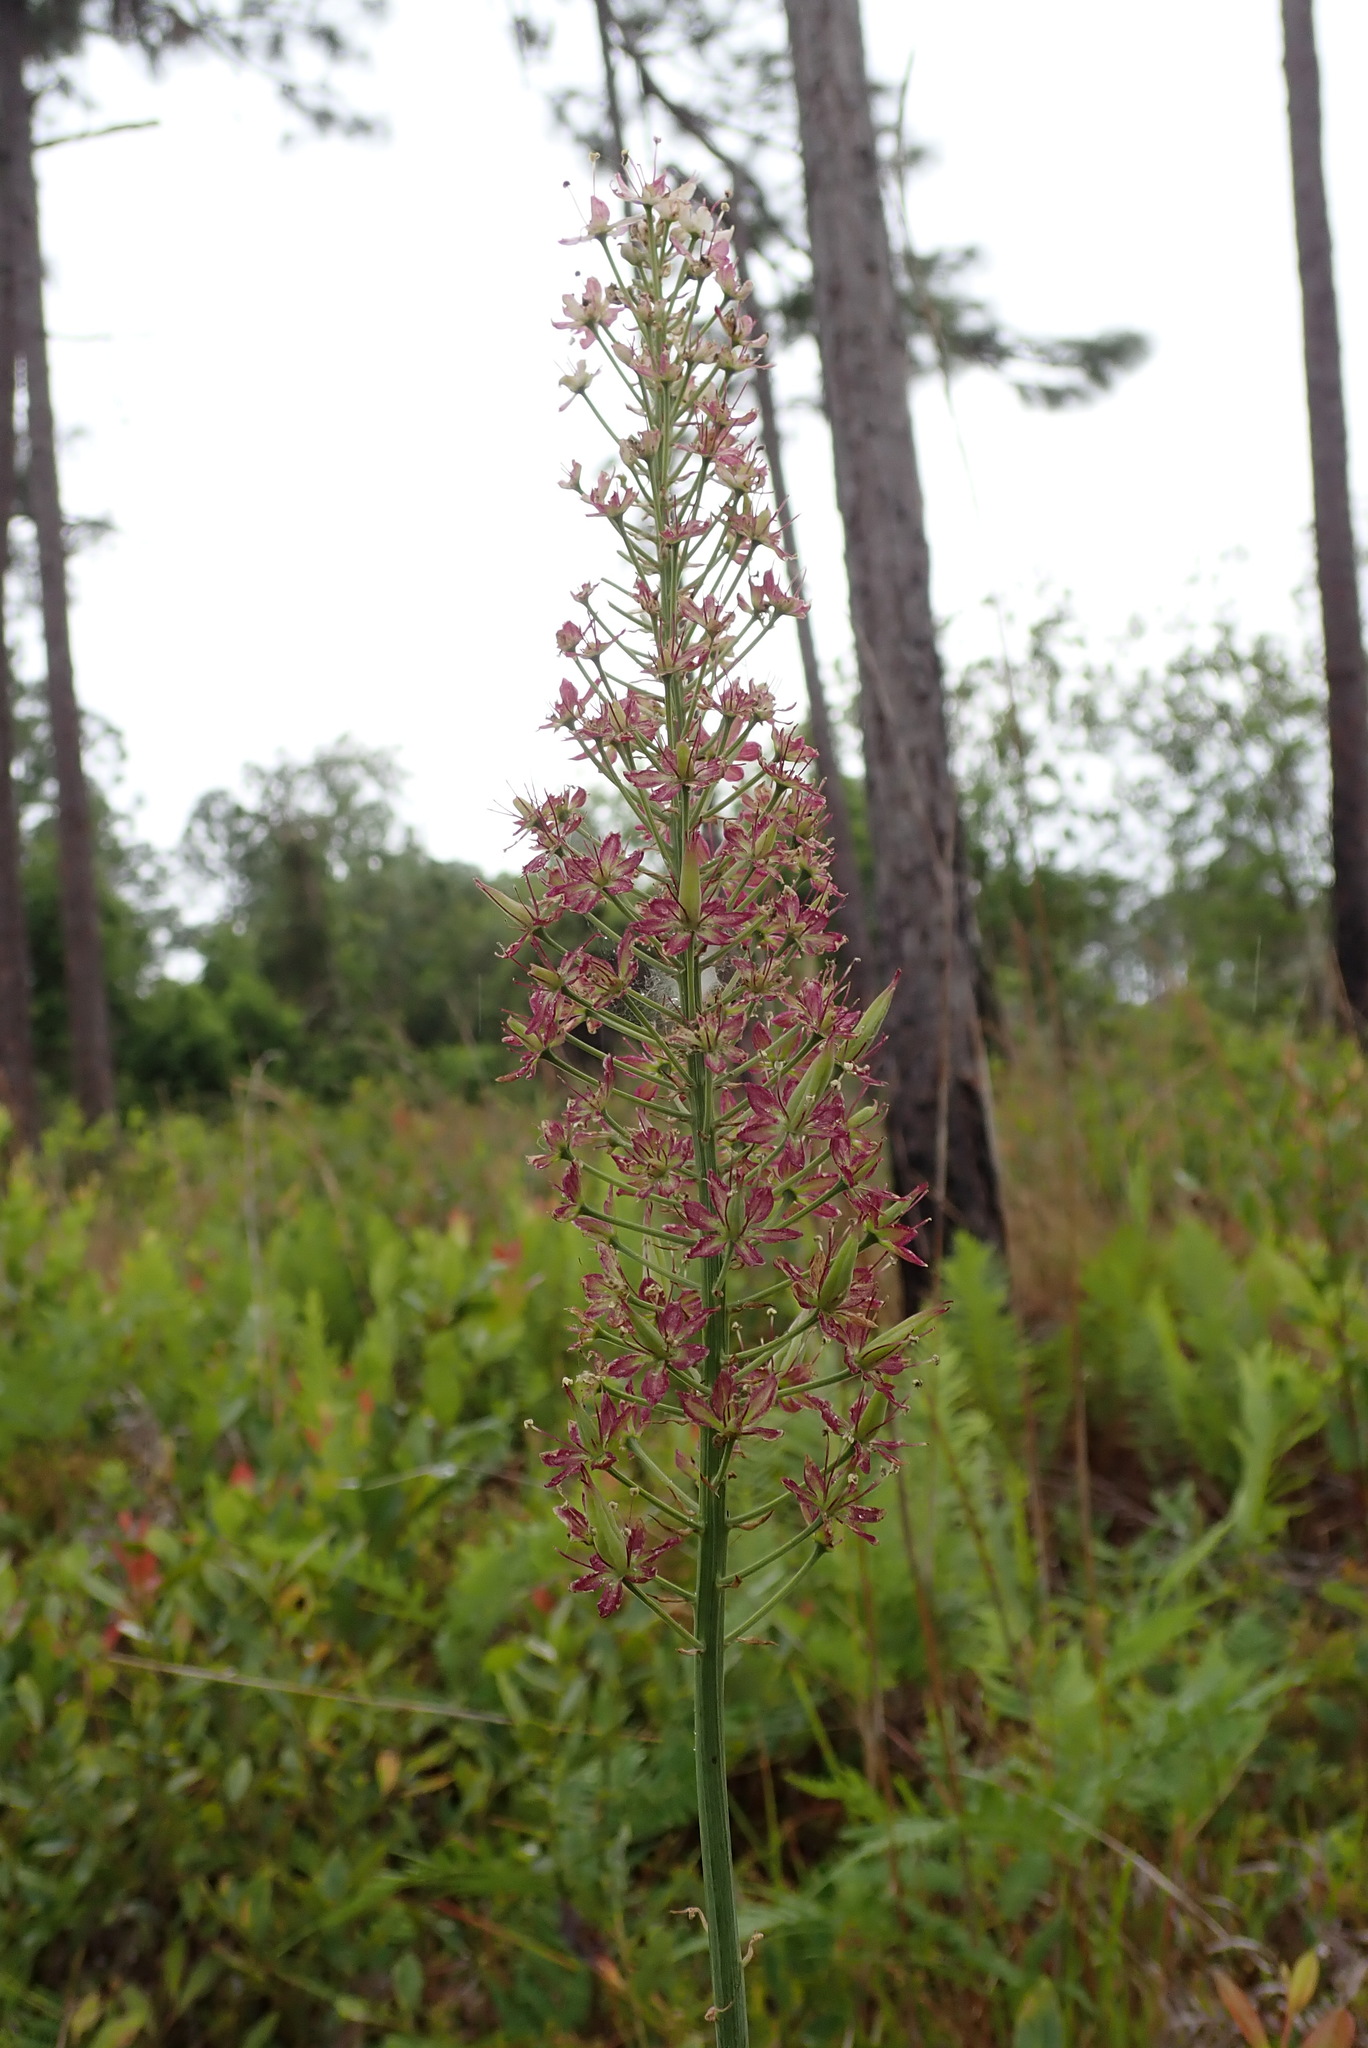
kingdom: Plantae
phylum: Tracheophyta
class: Liliopsida
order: Liliales
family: Melanthiaceae
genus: Stenanthium
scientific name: Stenanthium densum
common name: Crow-poison
